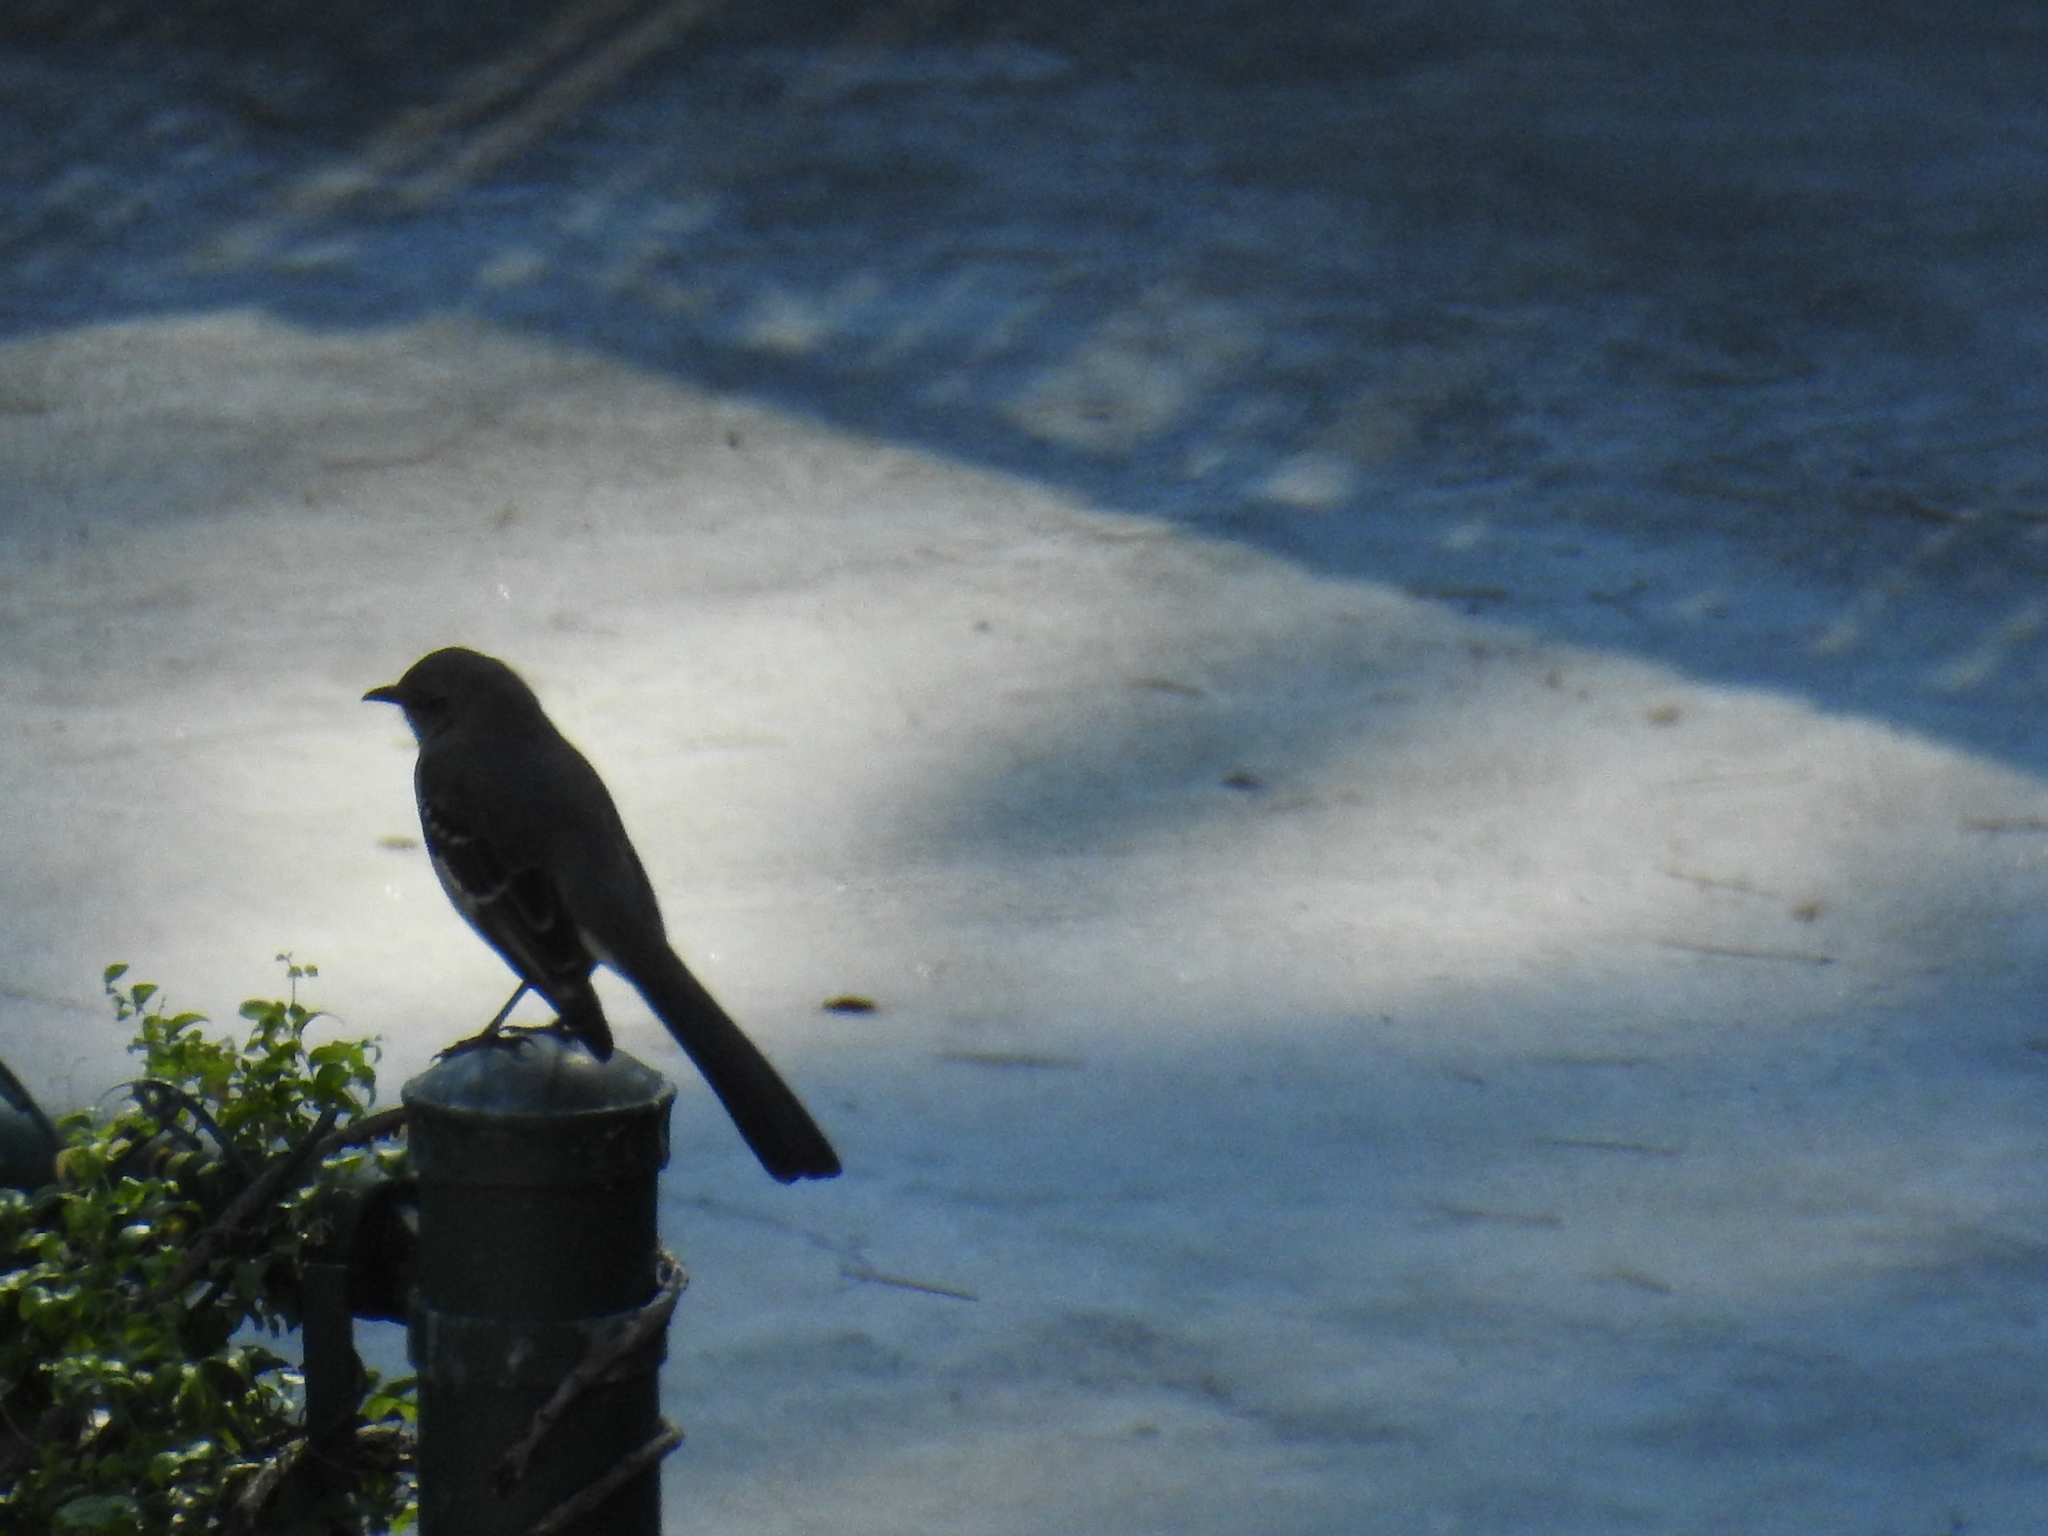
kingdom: Animalia
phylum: Chordata
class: Aves
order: Passeriformes
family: Mimidae
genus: Mimus
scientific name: Mimus polyglottos
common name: Northern mockingbird
